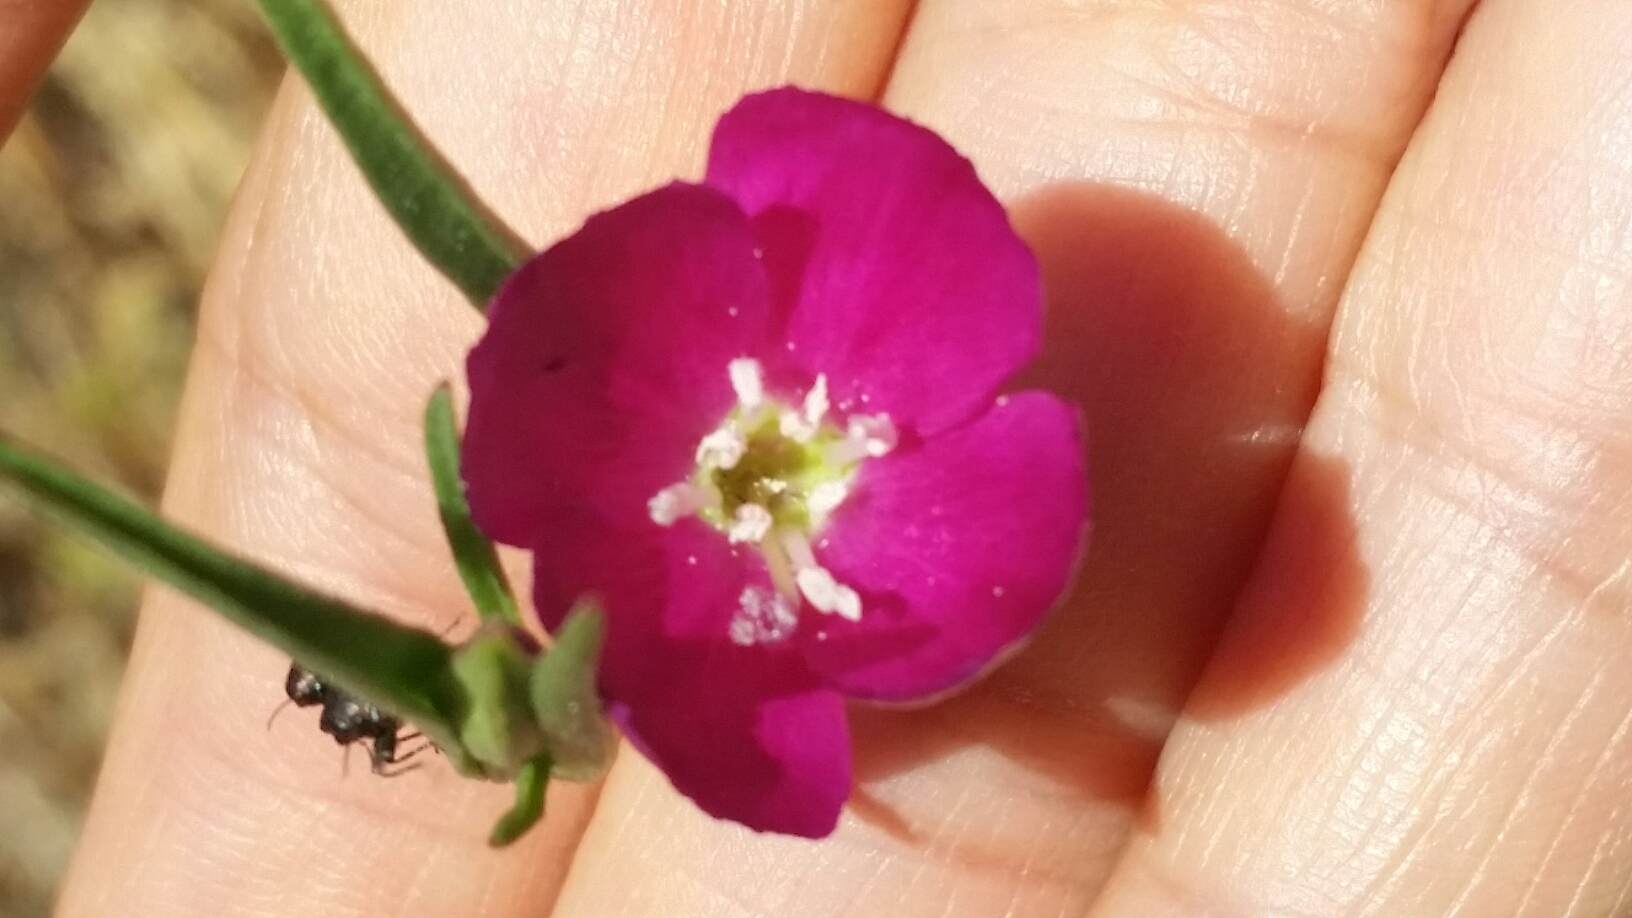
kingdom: Plantae
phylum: Tracheophyta
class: Magnoliopsida
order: Myrtales
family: Onagraceae
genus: Clarkia
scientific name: Clarkia purpurea
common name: Purple clarkia
